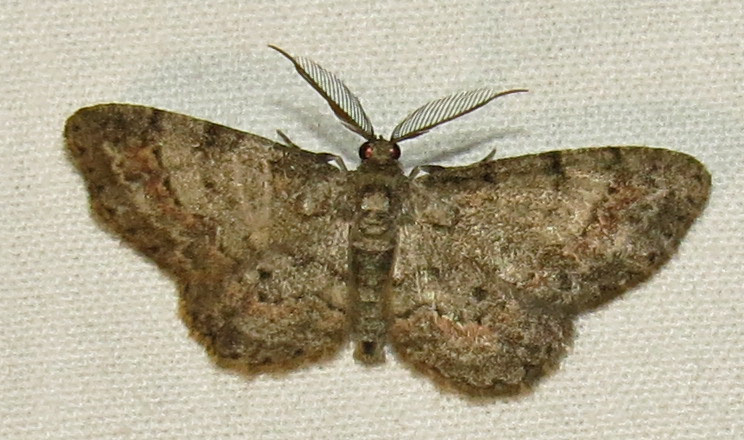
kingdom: Animalia
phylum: Arthropoda
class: Insecta
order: Lepidoptera
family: Geometridae
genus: Glenoides
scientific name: Glenoides texanaria
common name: Texas gray
